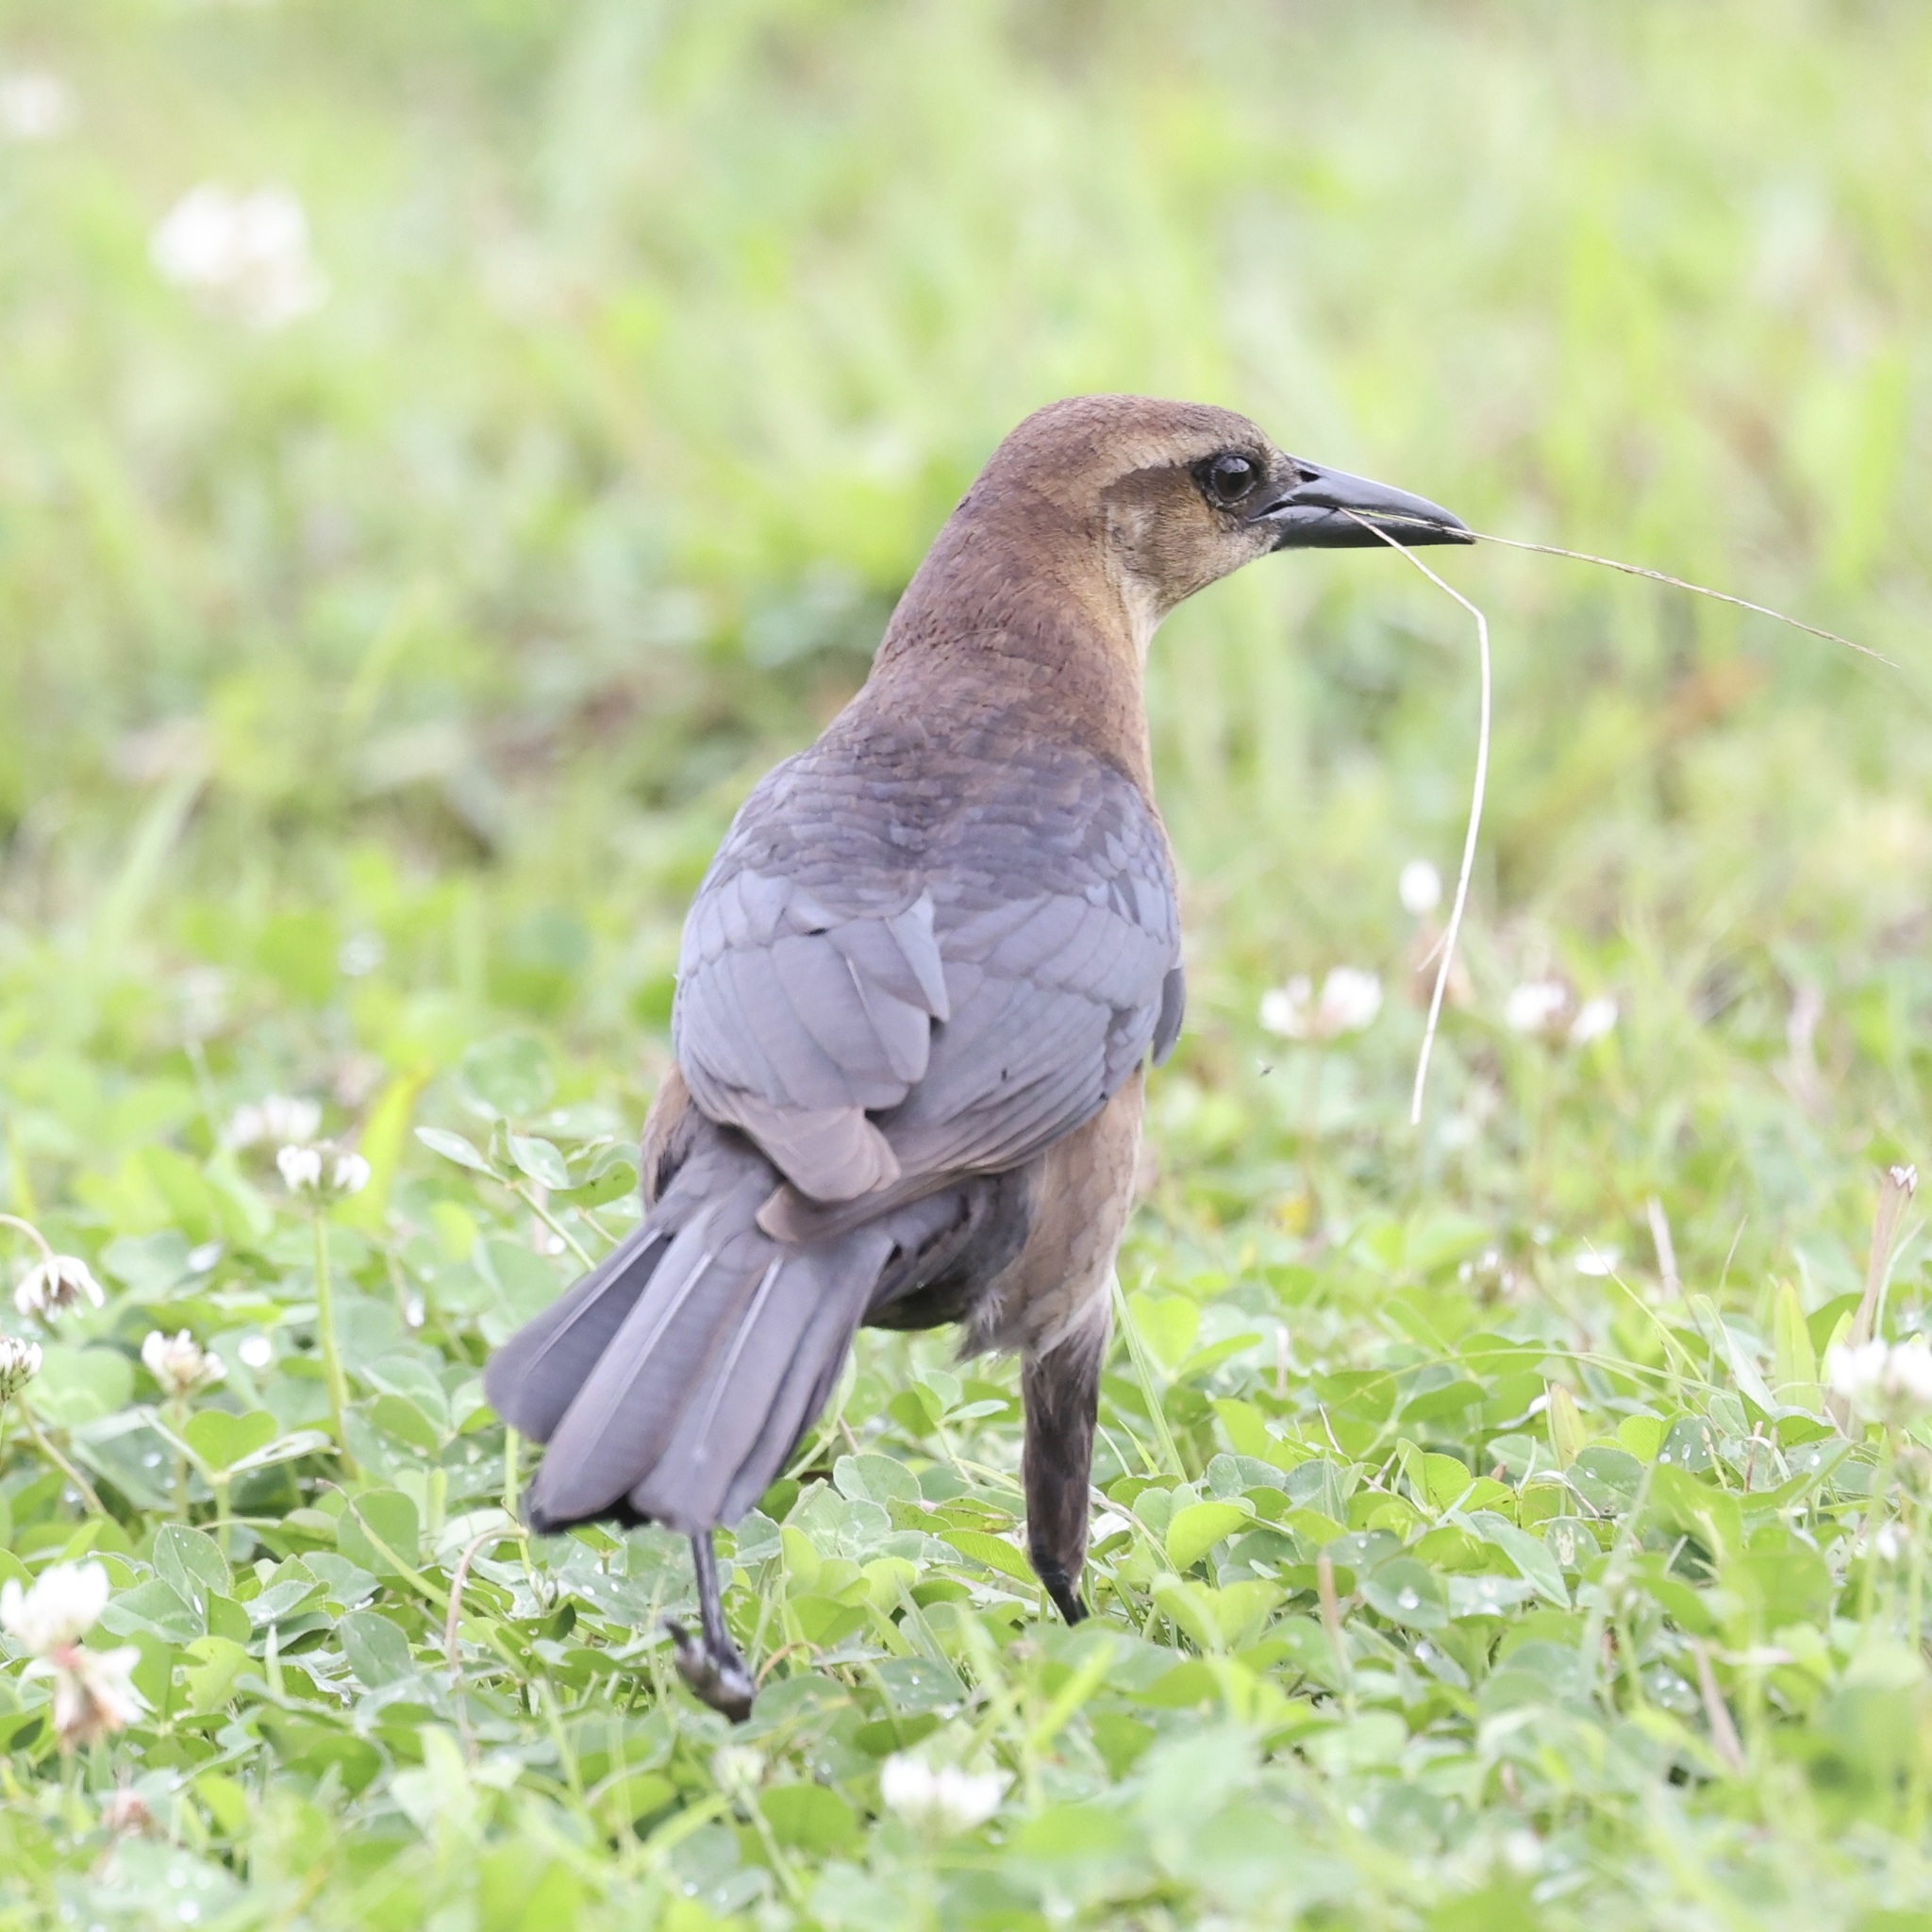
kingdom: Animalia
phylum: Chordata
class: Aves
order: Passeriformes
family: Icteridae
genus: Quiscalus
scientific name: Quiscalus major
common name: Boat-tailed grackle
